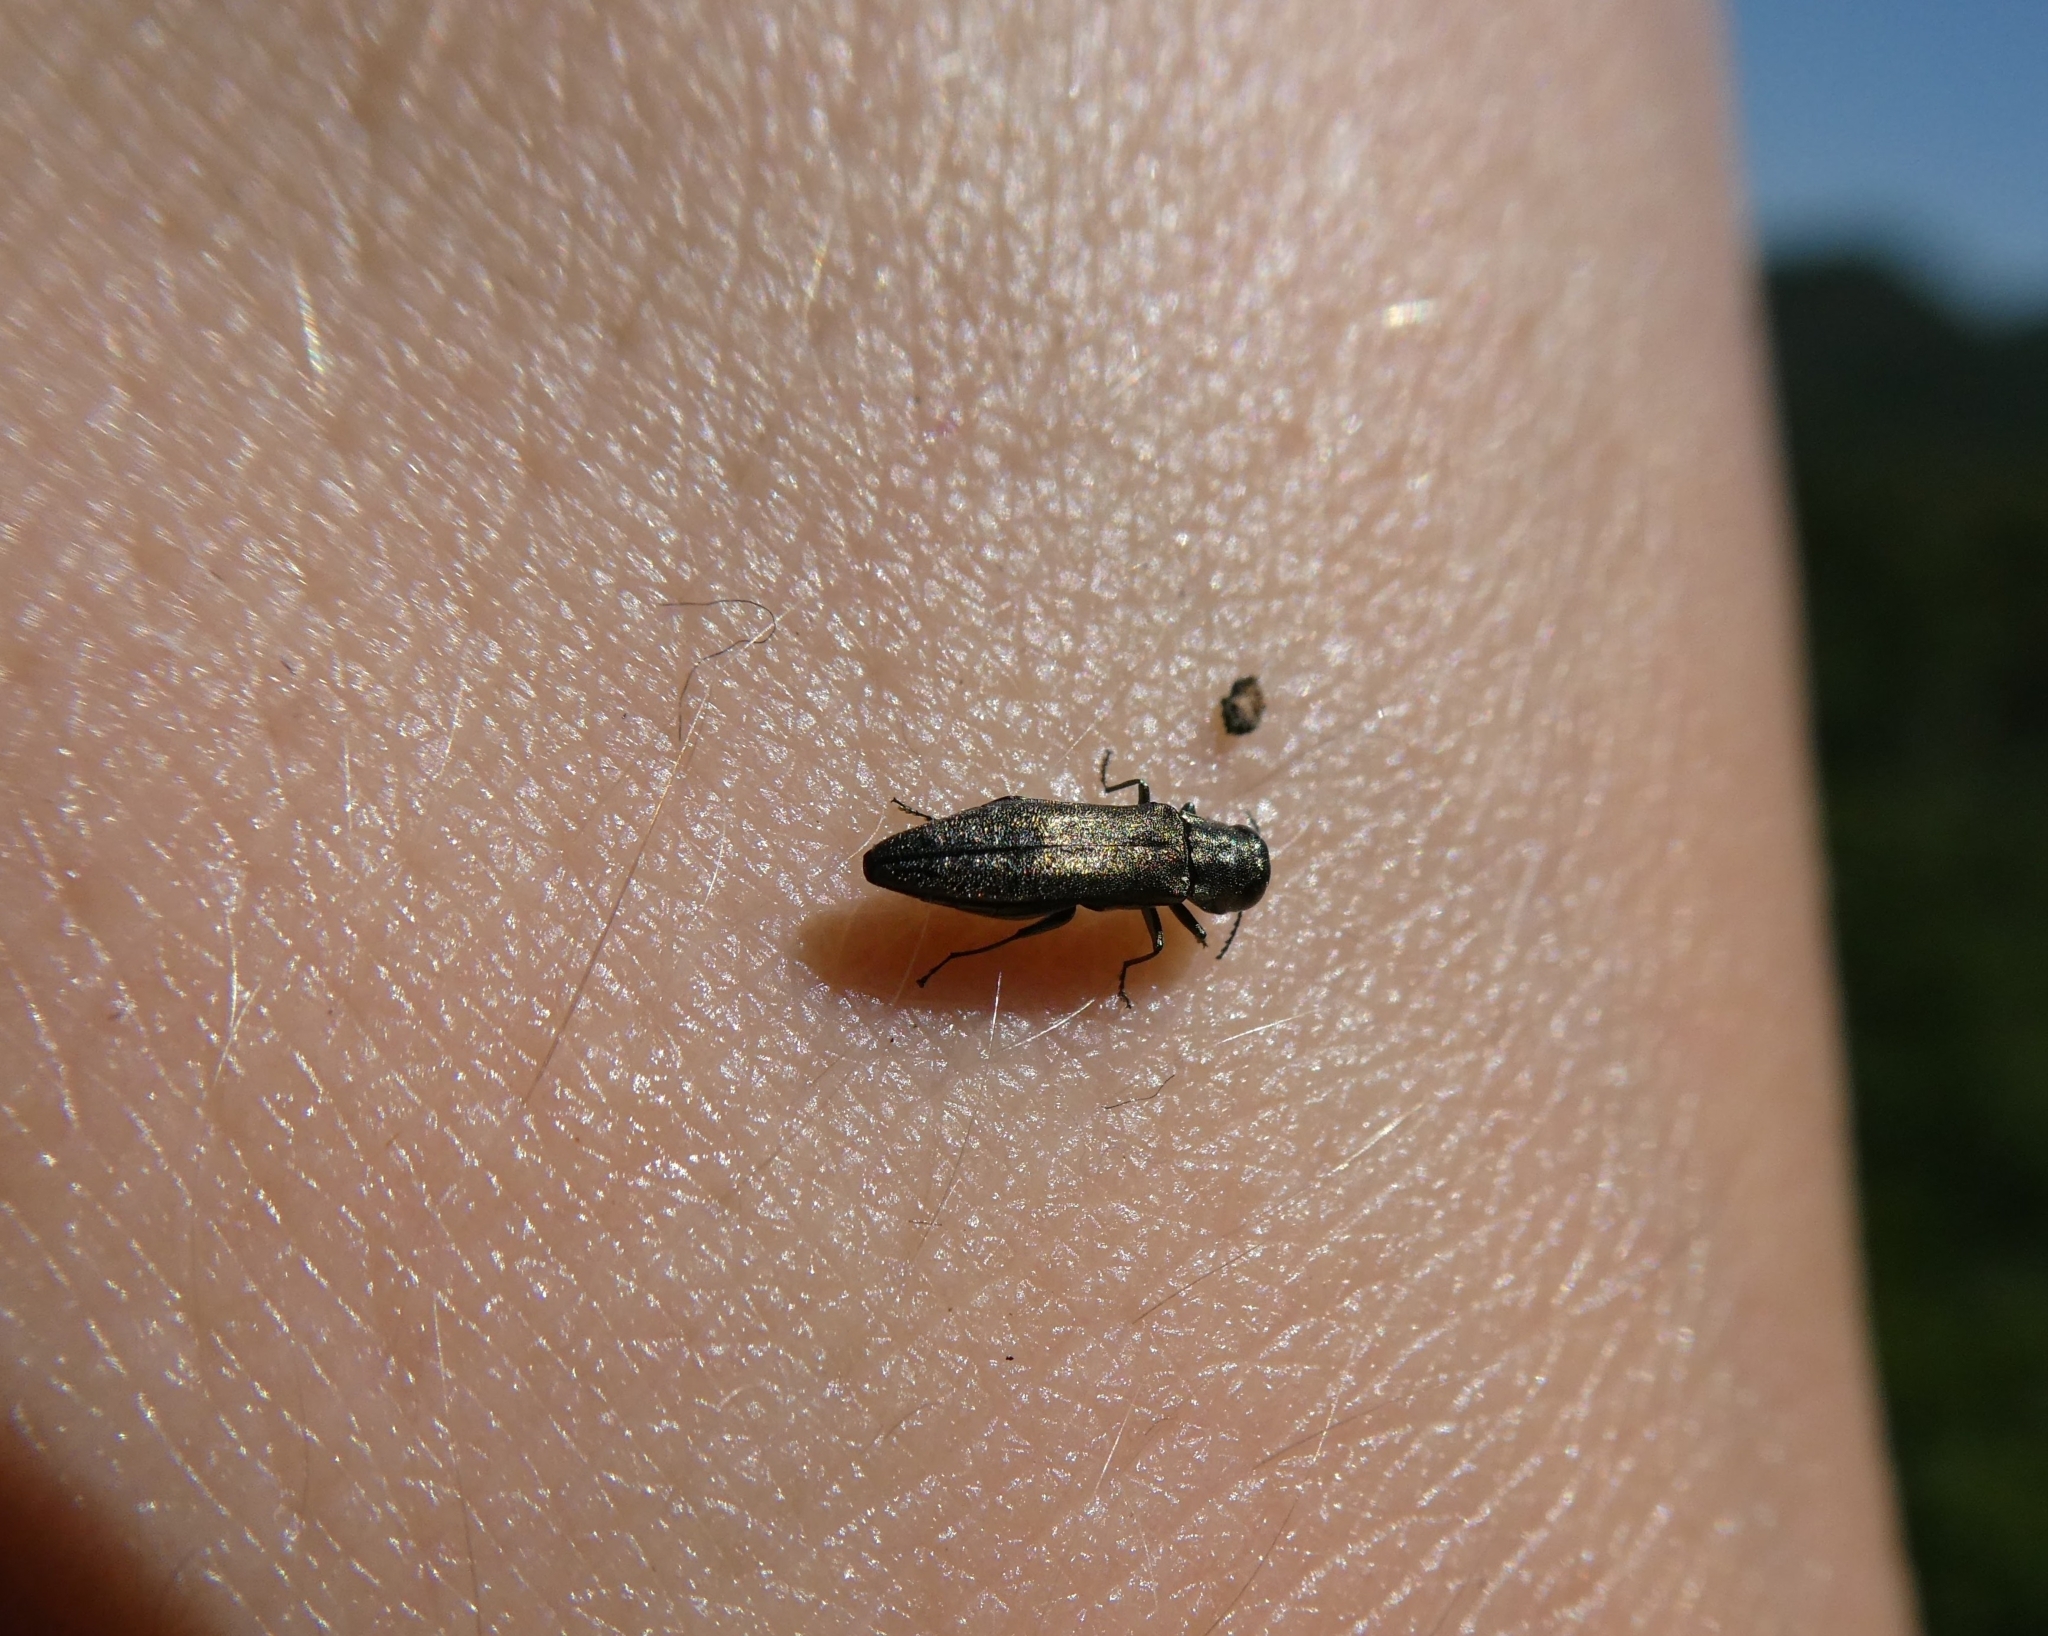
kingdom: Animalia
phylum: Arthropoda
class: Insecta
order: Coleoptera
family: Buprestidae
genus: Agrilus
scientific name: Agrilus
